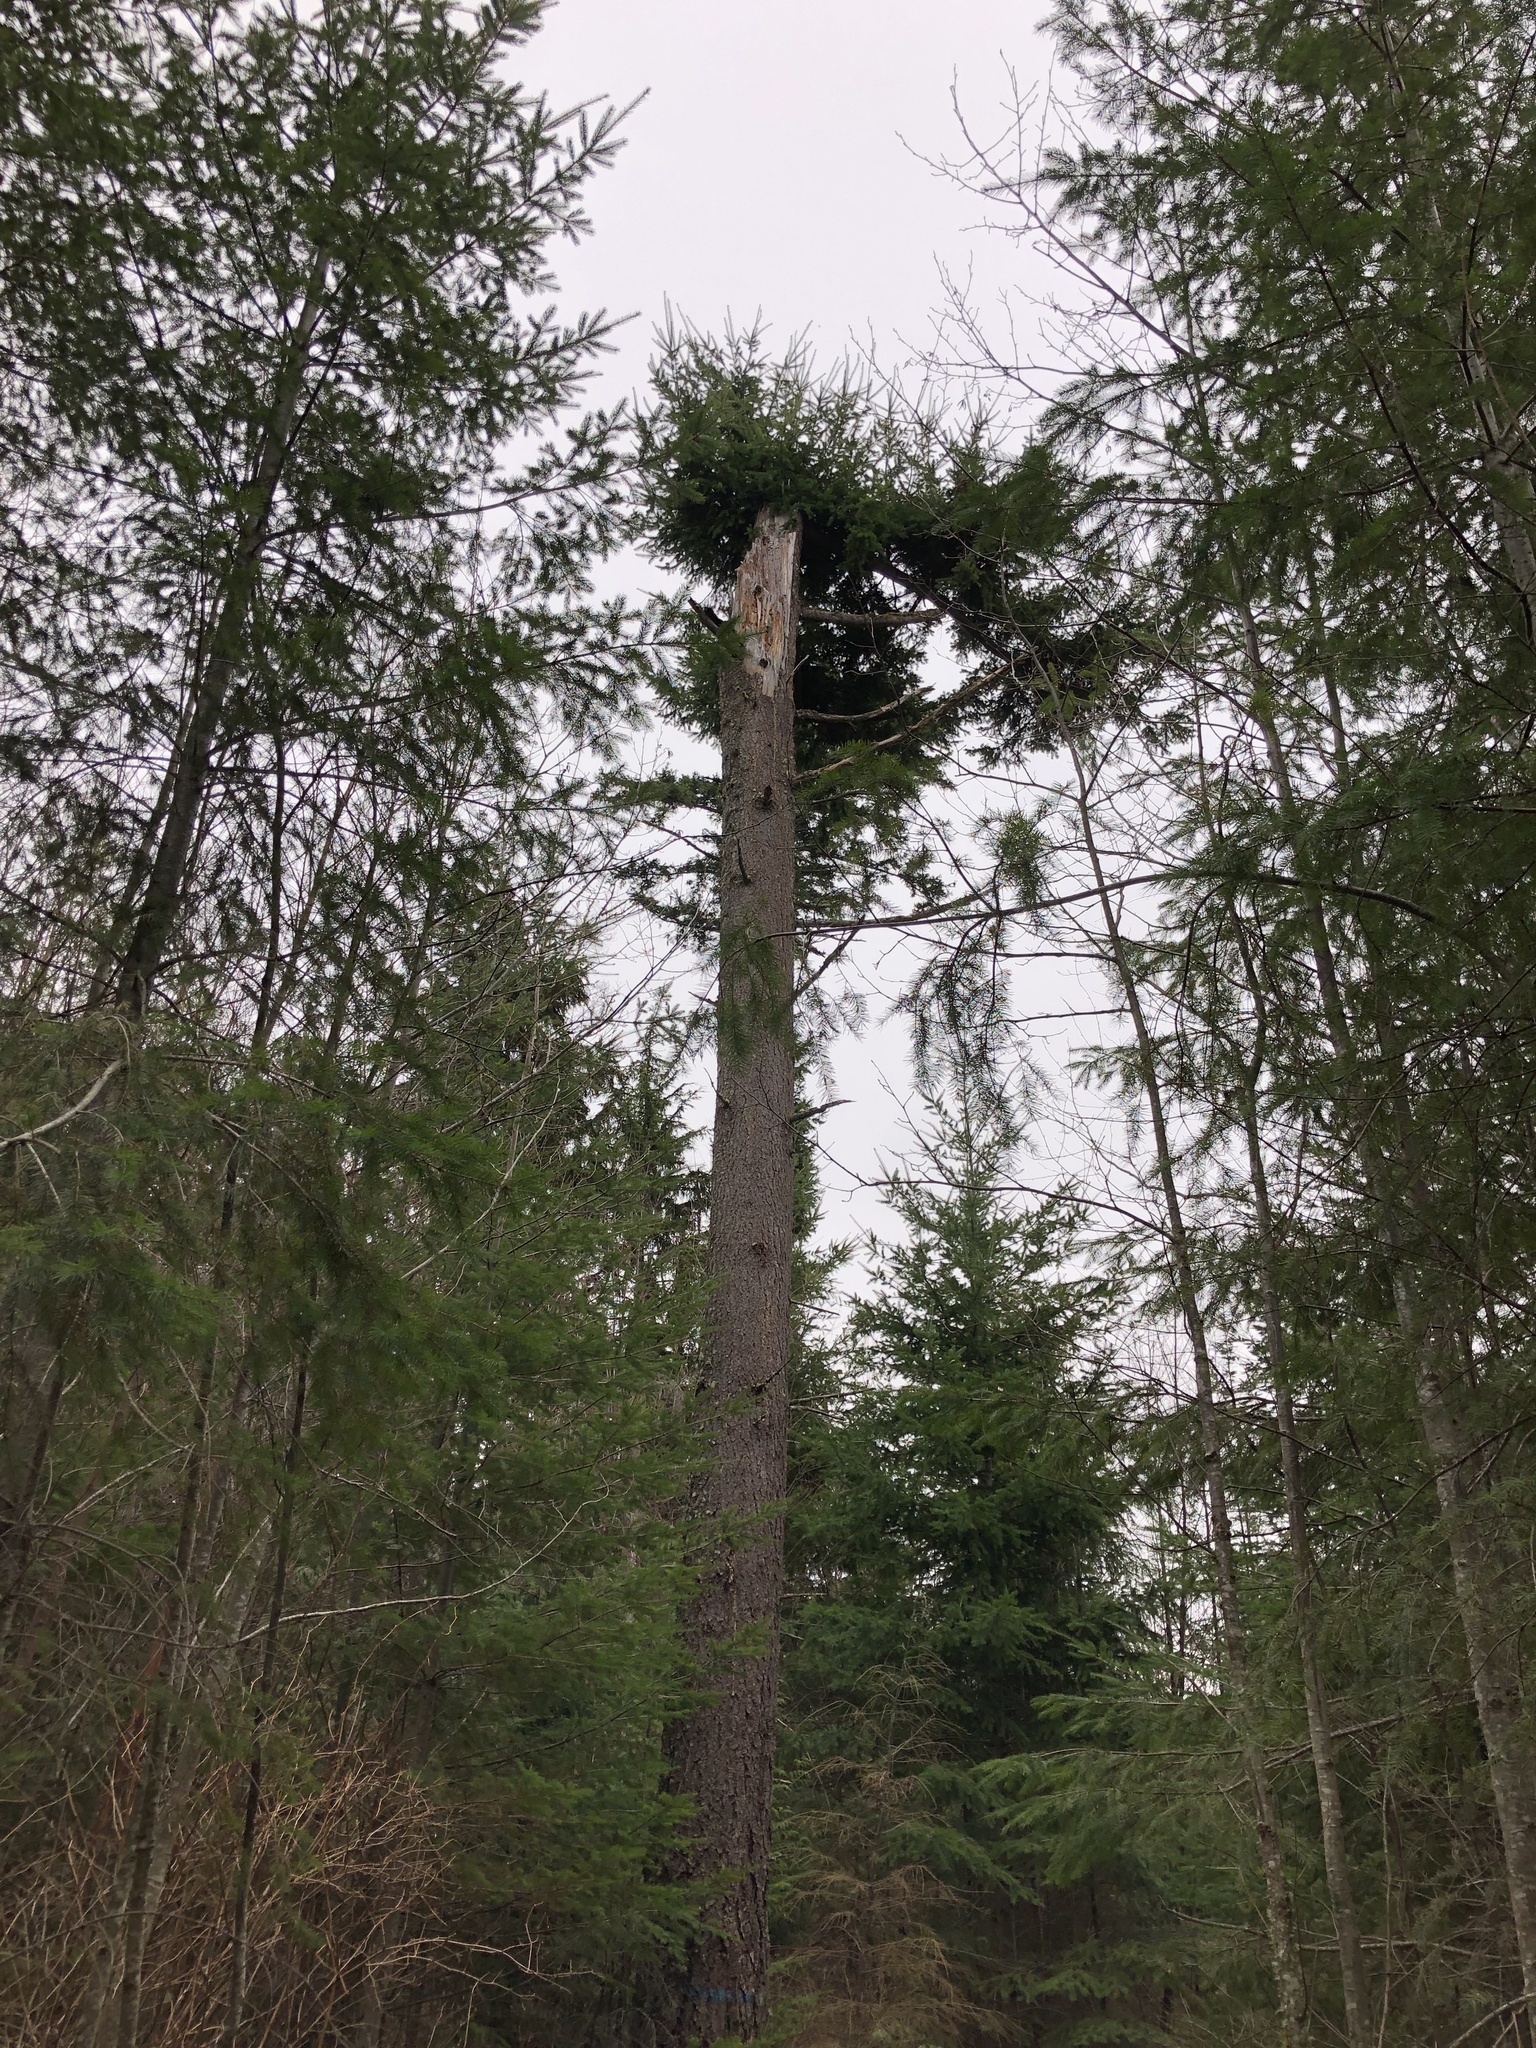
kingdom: Plantae
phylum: Tracheophyta
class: Pinopsida
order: Pinales
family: Pinaceae
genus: Pseudotsuga
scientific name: Pseudotsuga menziesii
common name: Douglas fir
